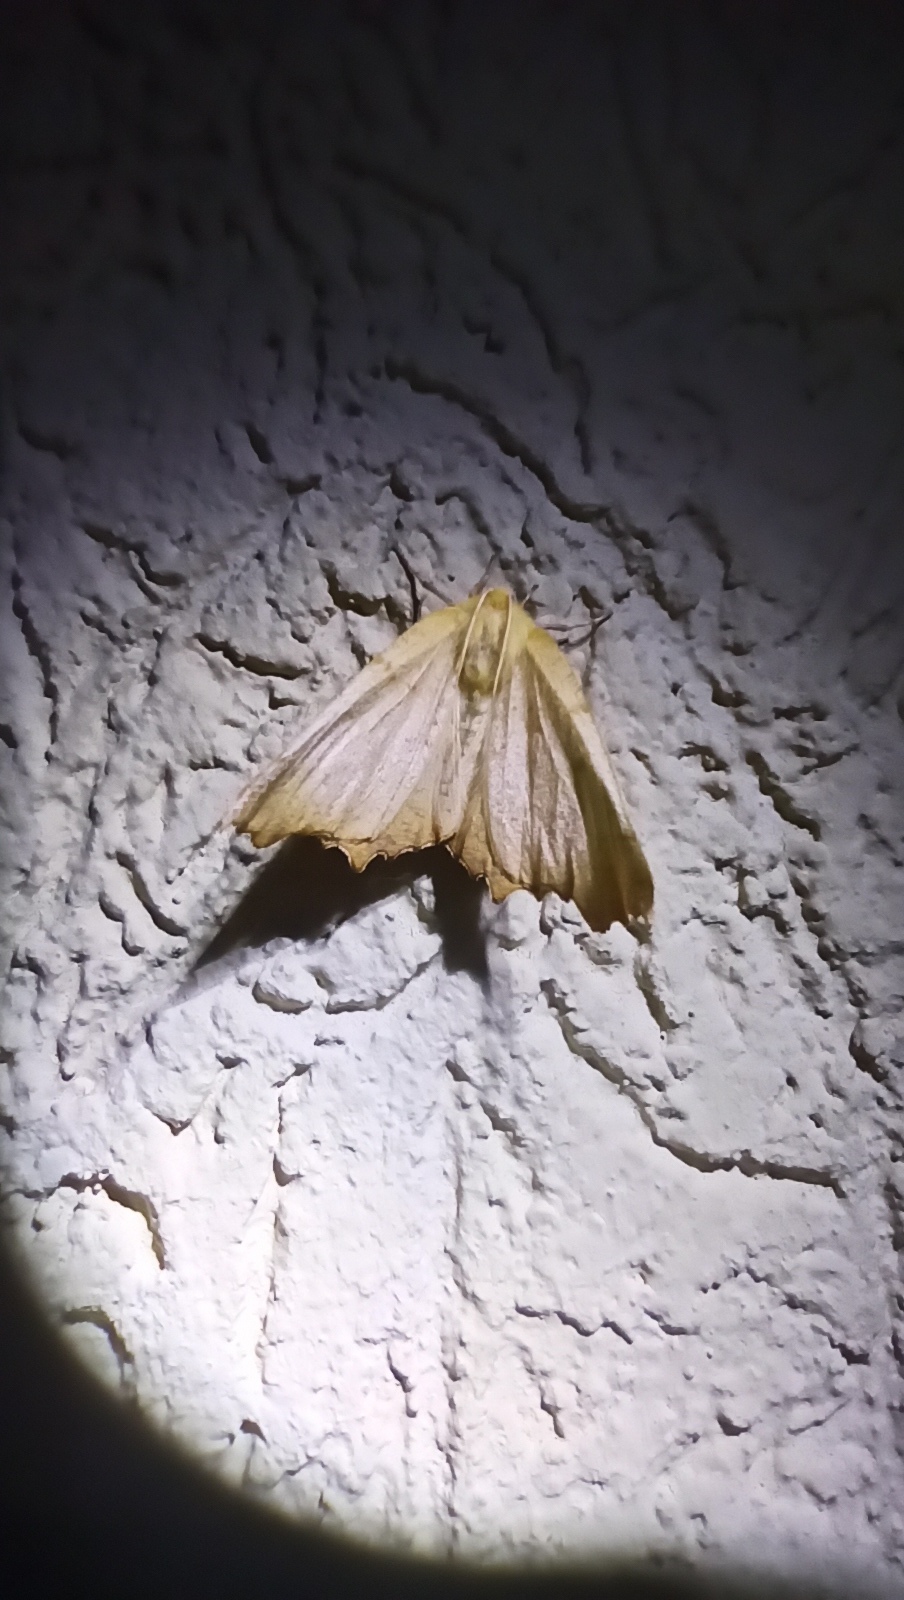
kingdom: Animalia
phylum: Arthropoda
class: Insecta
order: Lepidoptera
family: Geometridae
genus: Ennomos
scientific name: Ennomos autumnaria
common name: Large thorn
